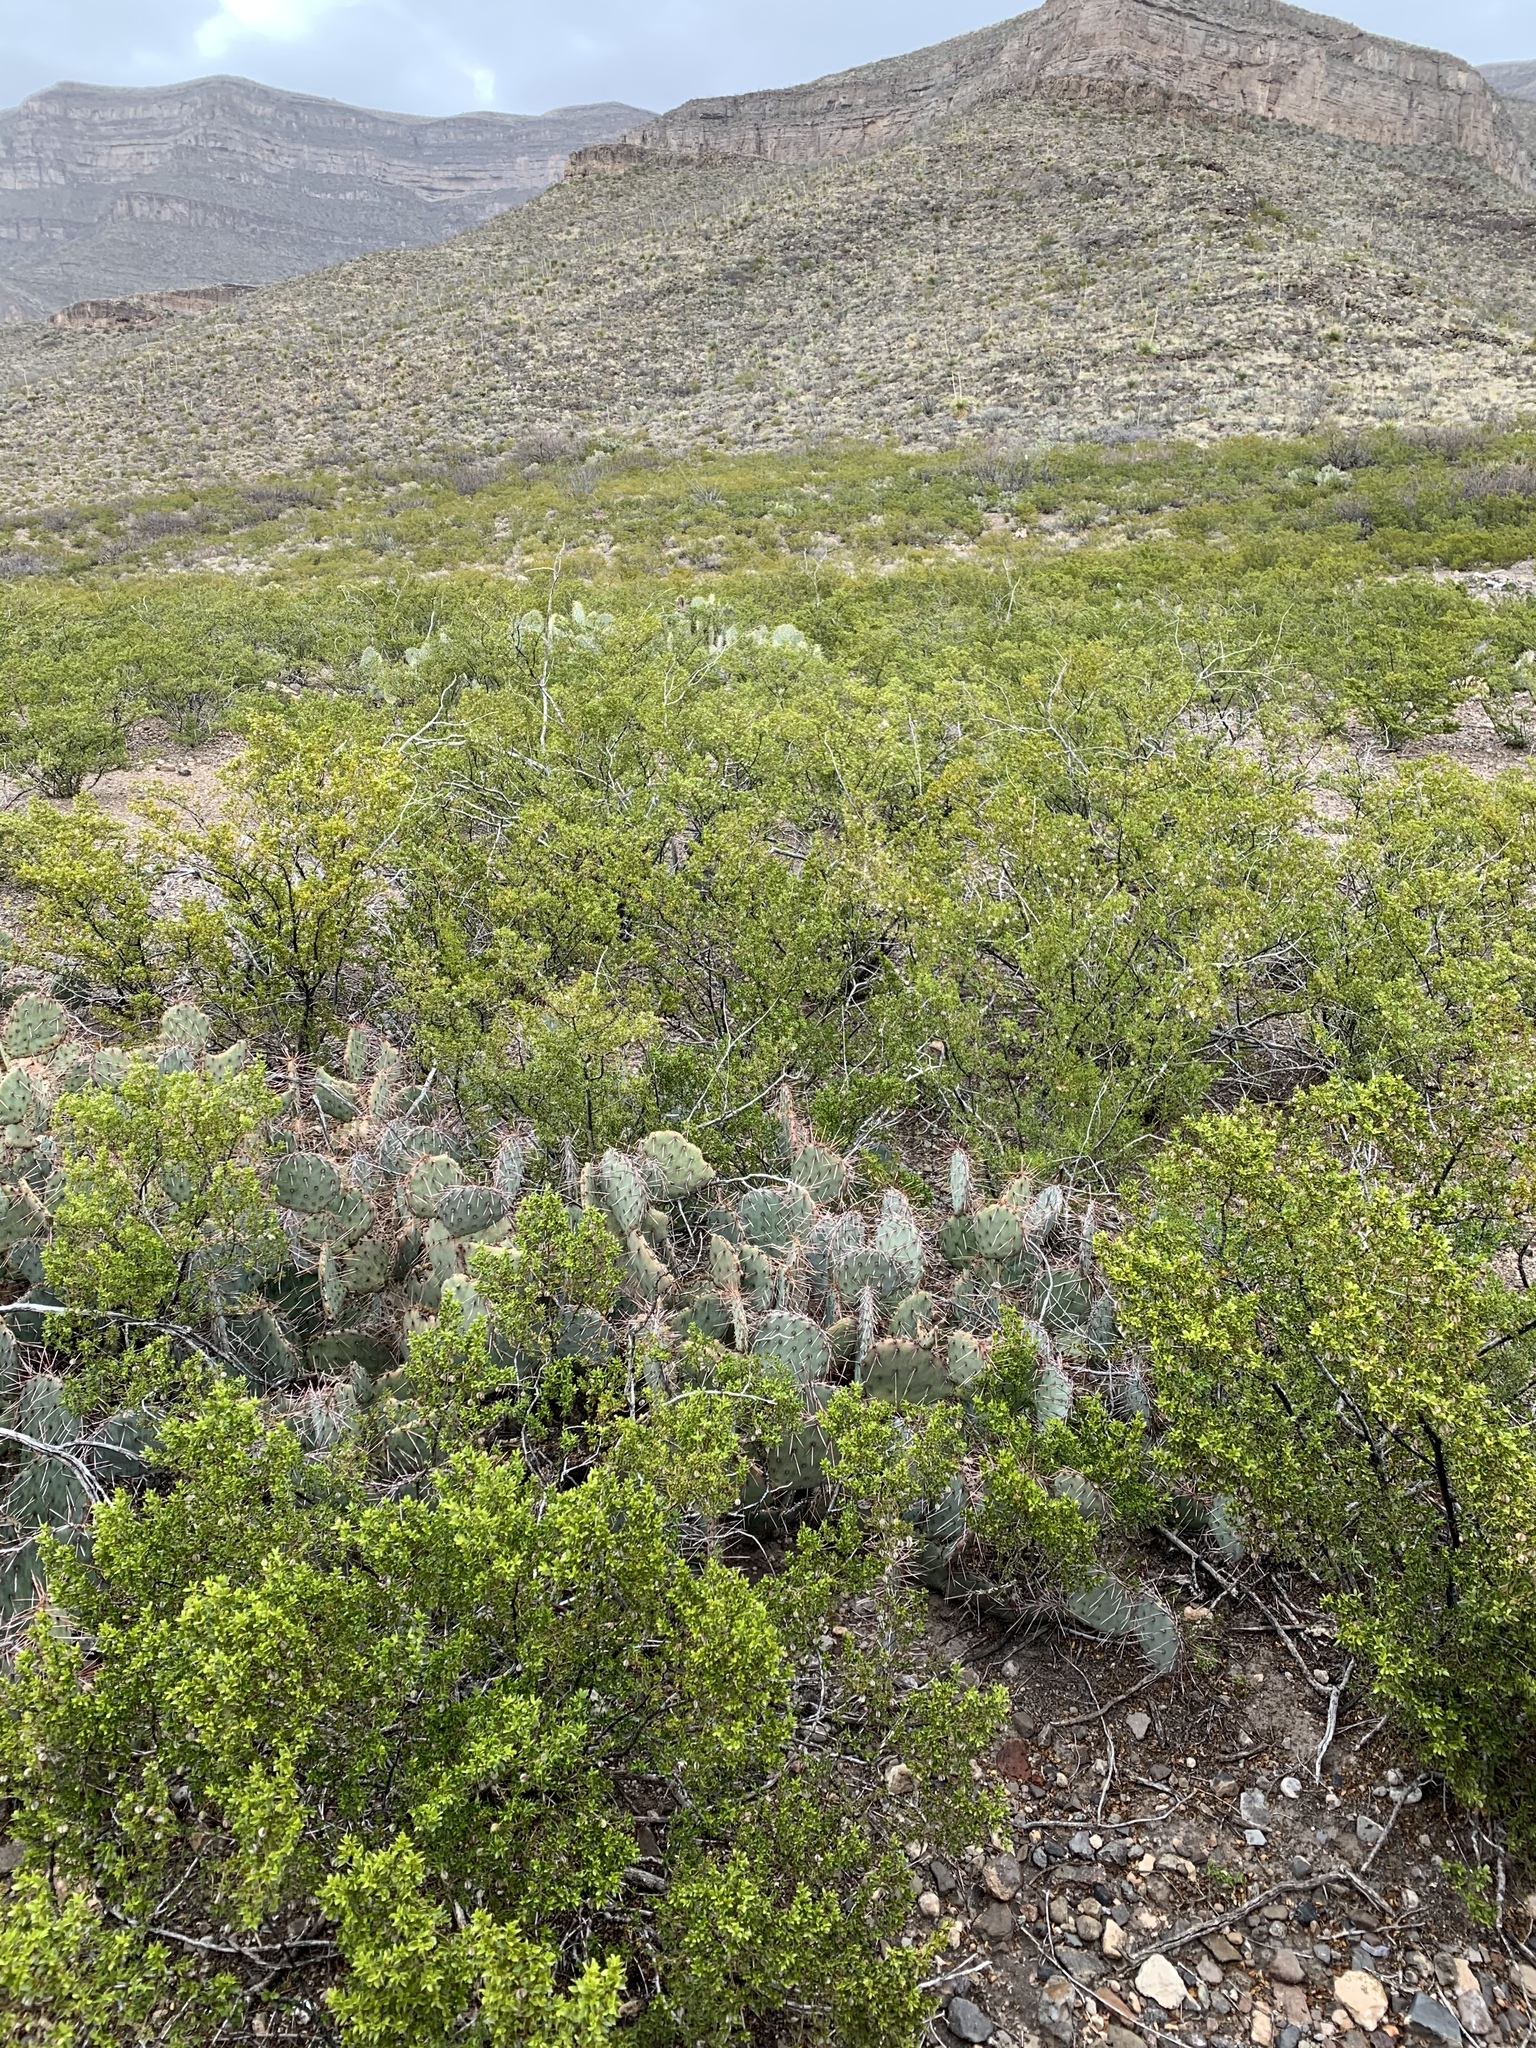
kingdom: Plantae
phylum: Tracheophyta
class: Magnoliopsida
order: Zygophyllales
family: Zygophyllaceae
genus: Larrea
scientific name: Larrea tridentata
